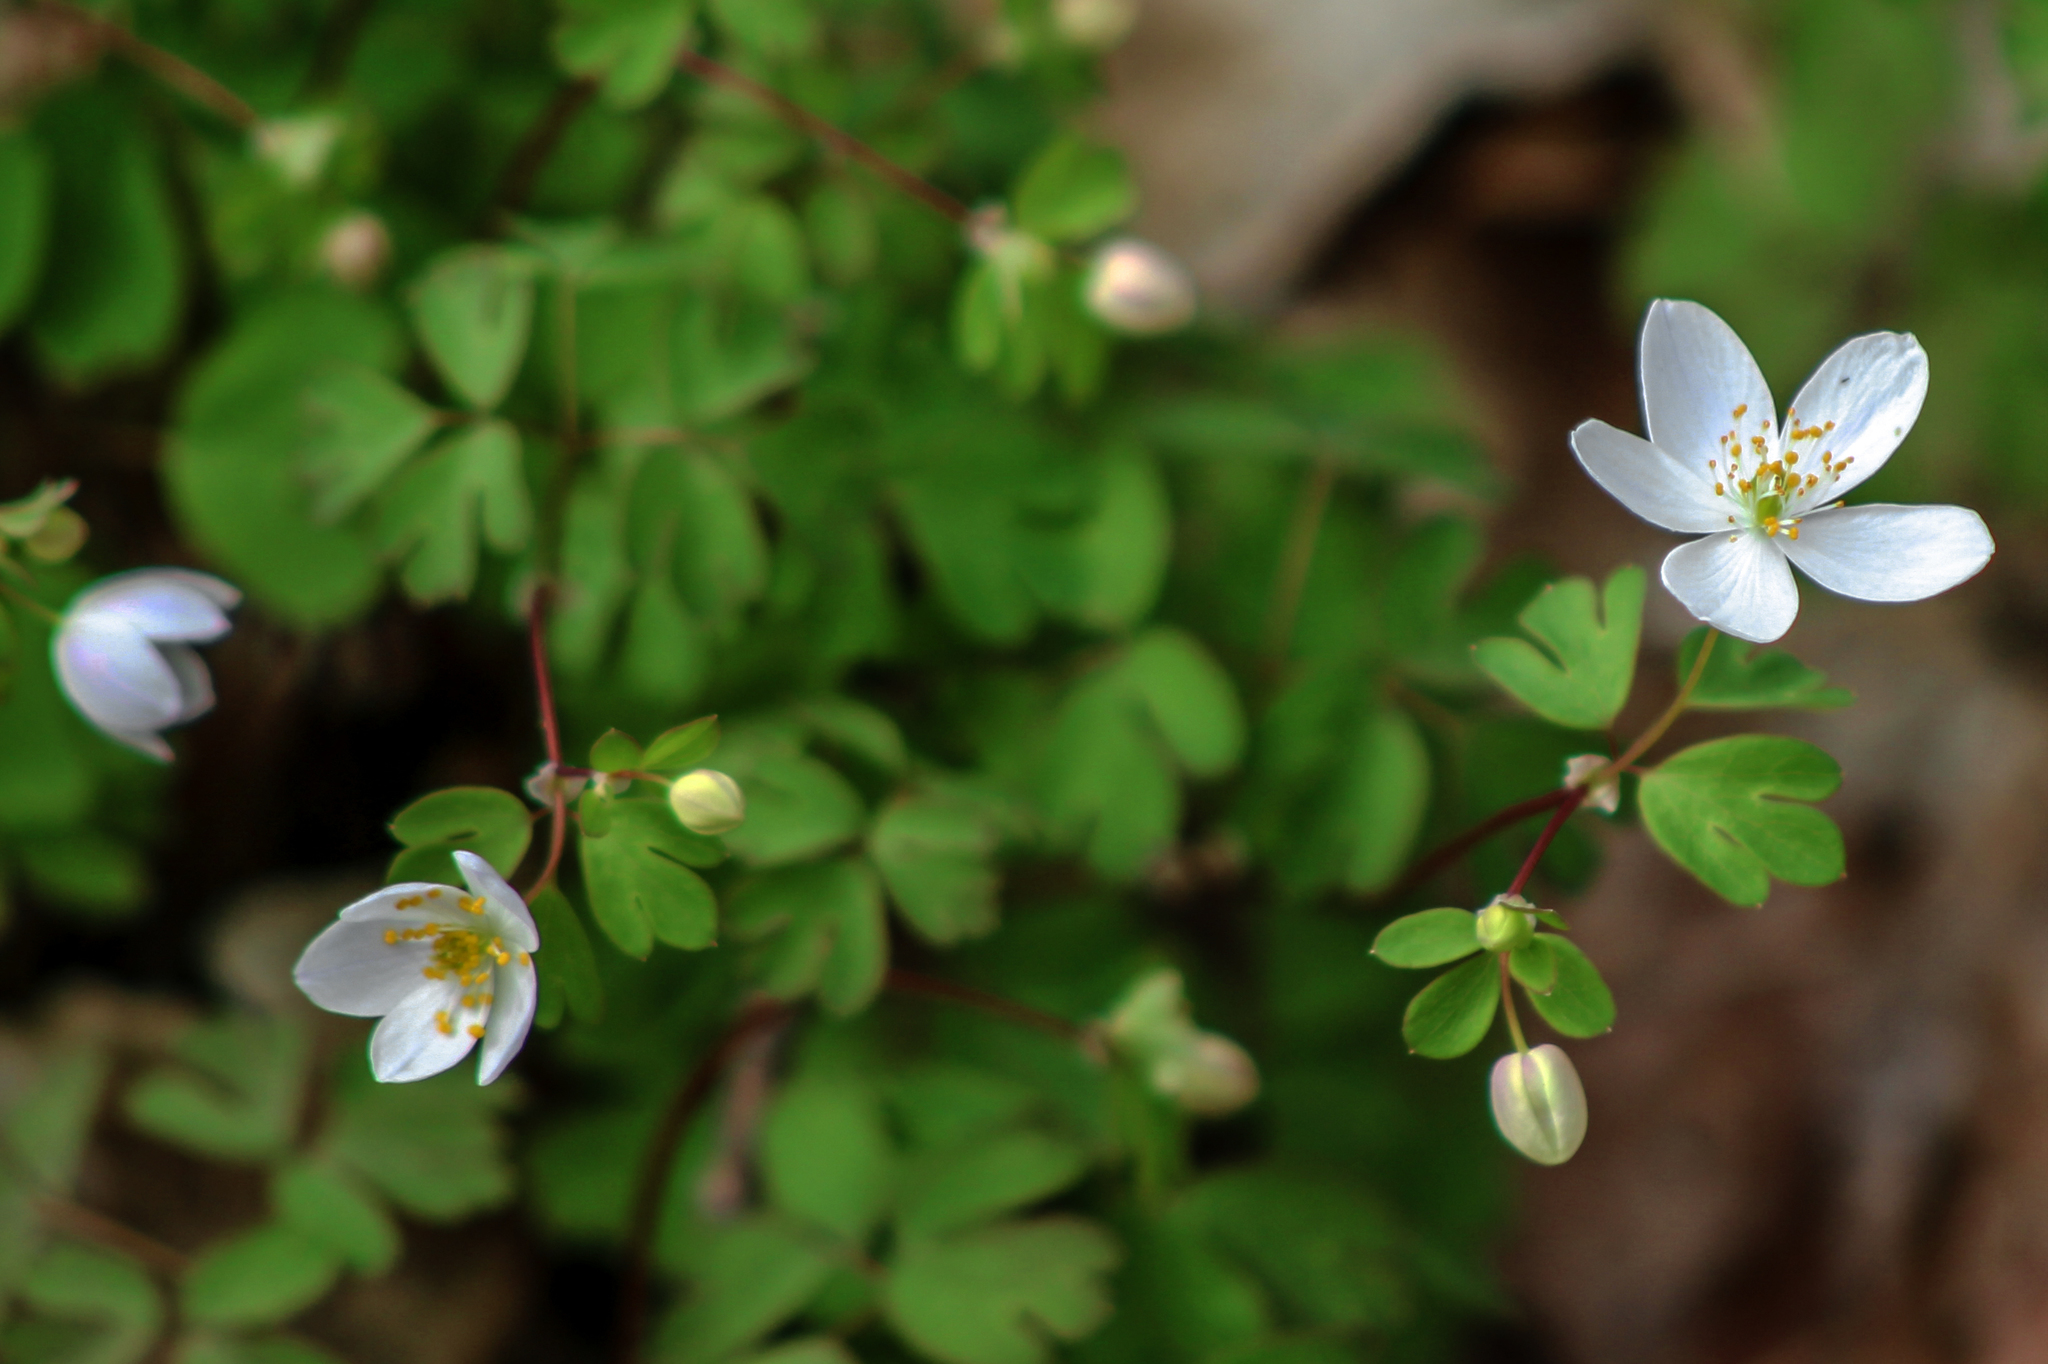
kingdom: Plantae
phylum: Tracheophyta
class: Magnoliopsida
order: Ranunculales
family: Ranunculaceae
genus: Enemion
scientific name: Enemion biternatum
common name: Eastern false rue-anemone
